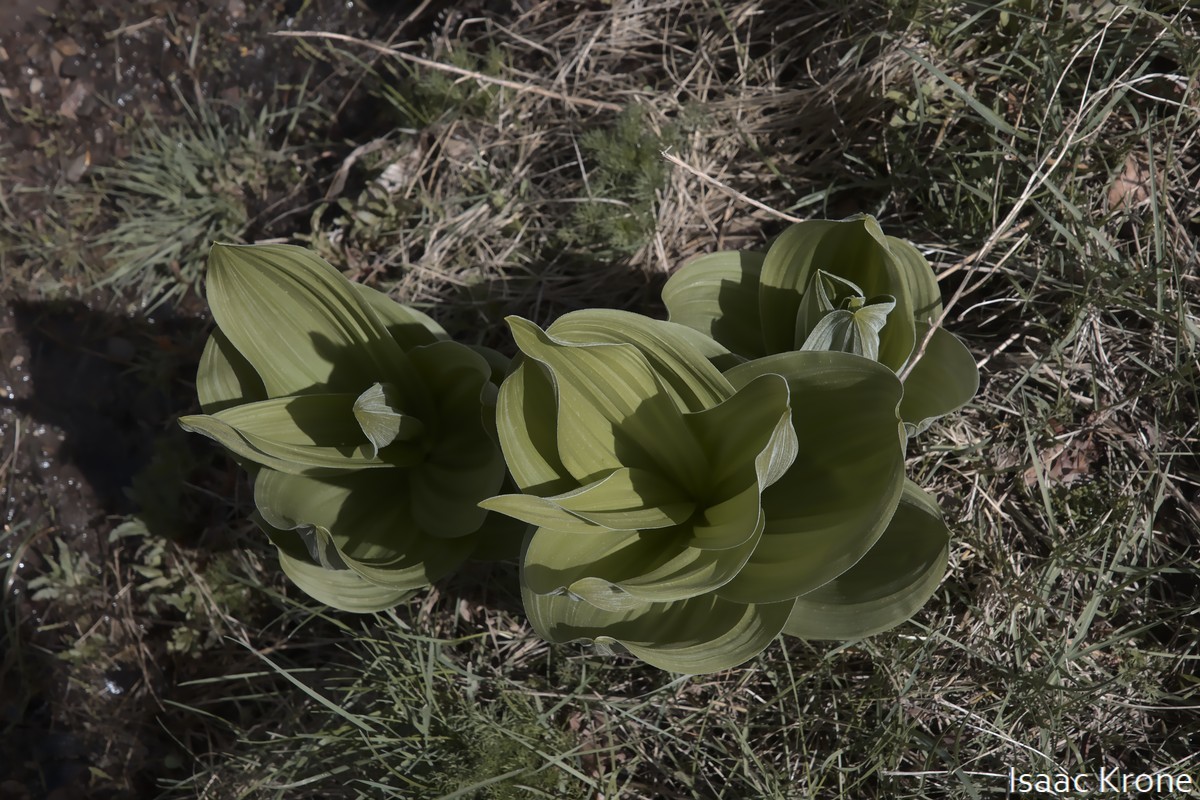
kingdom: Plantae
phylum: Tracheophyta
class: Liliopsida
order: Liliales
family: Melanthiaceae
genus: Veratrum
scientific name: Veratrum californicum
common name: California veratrum
